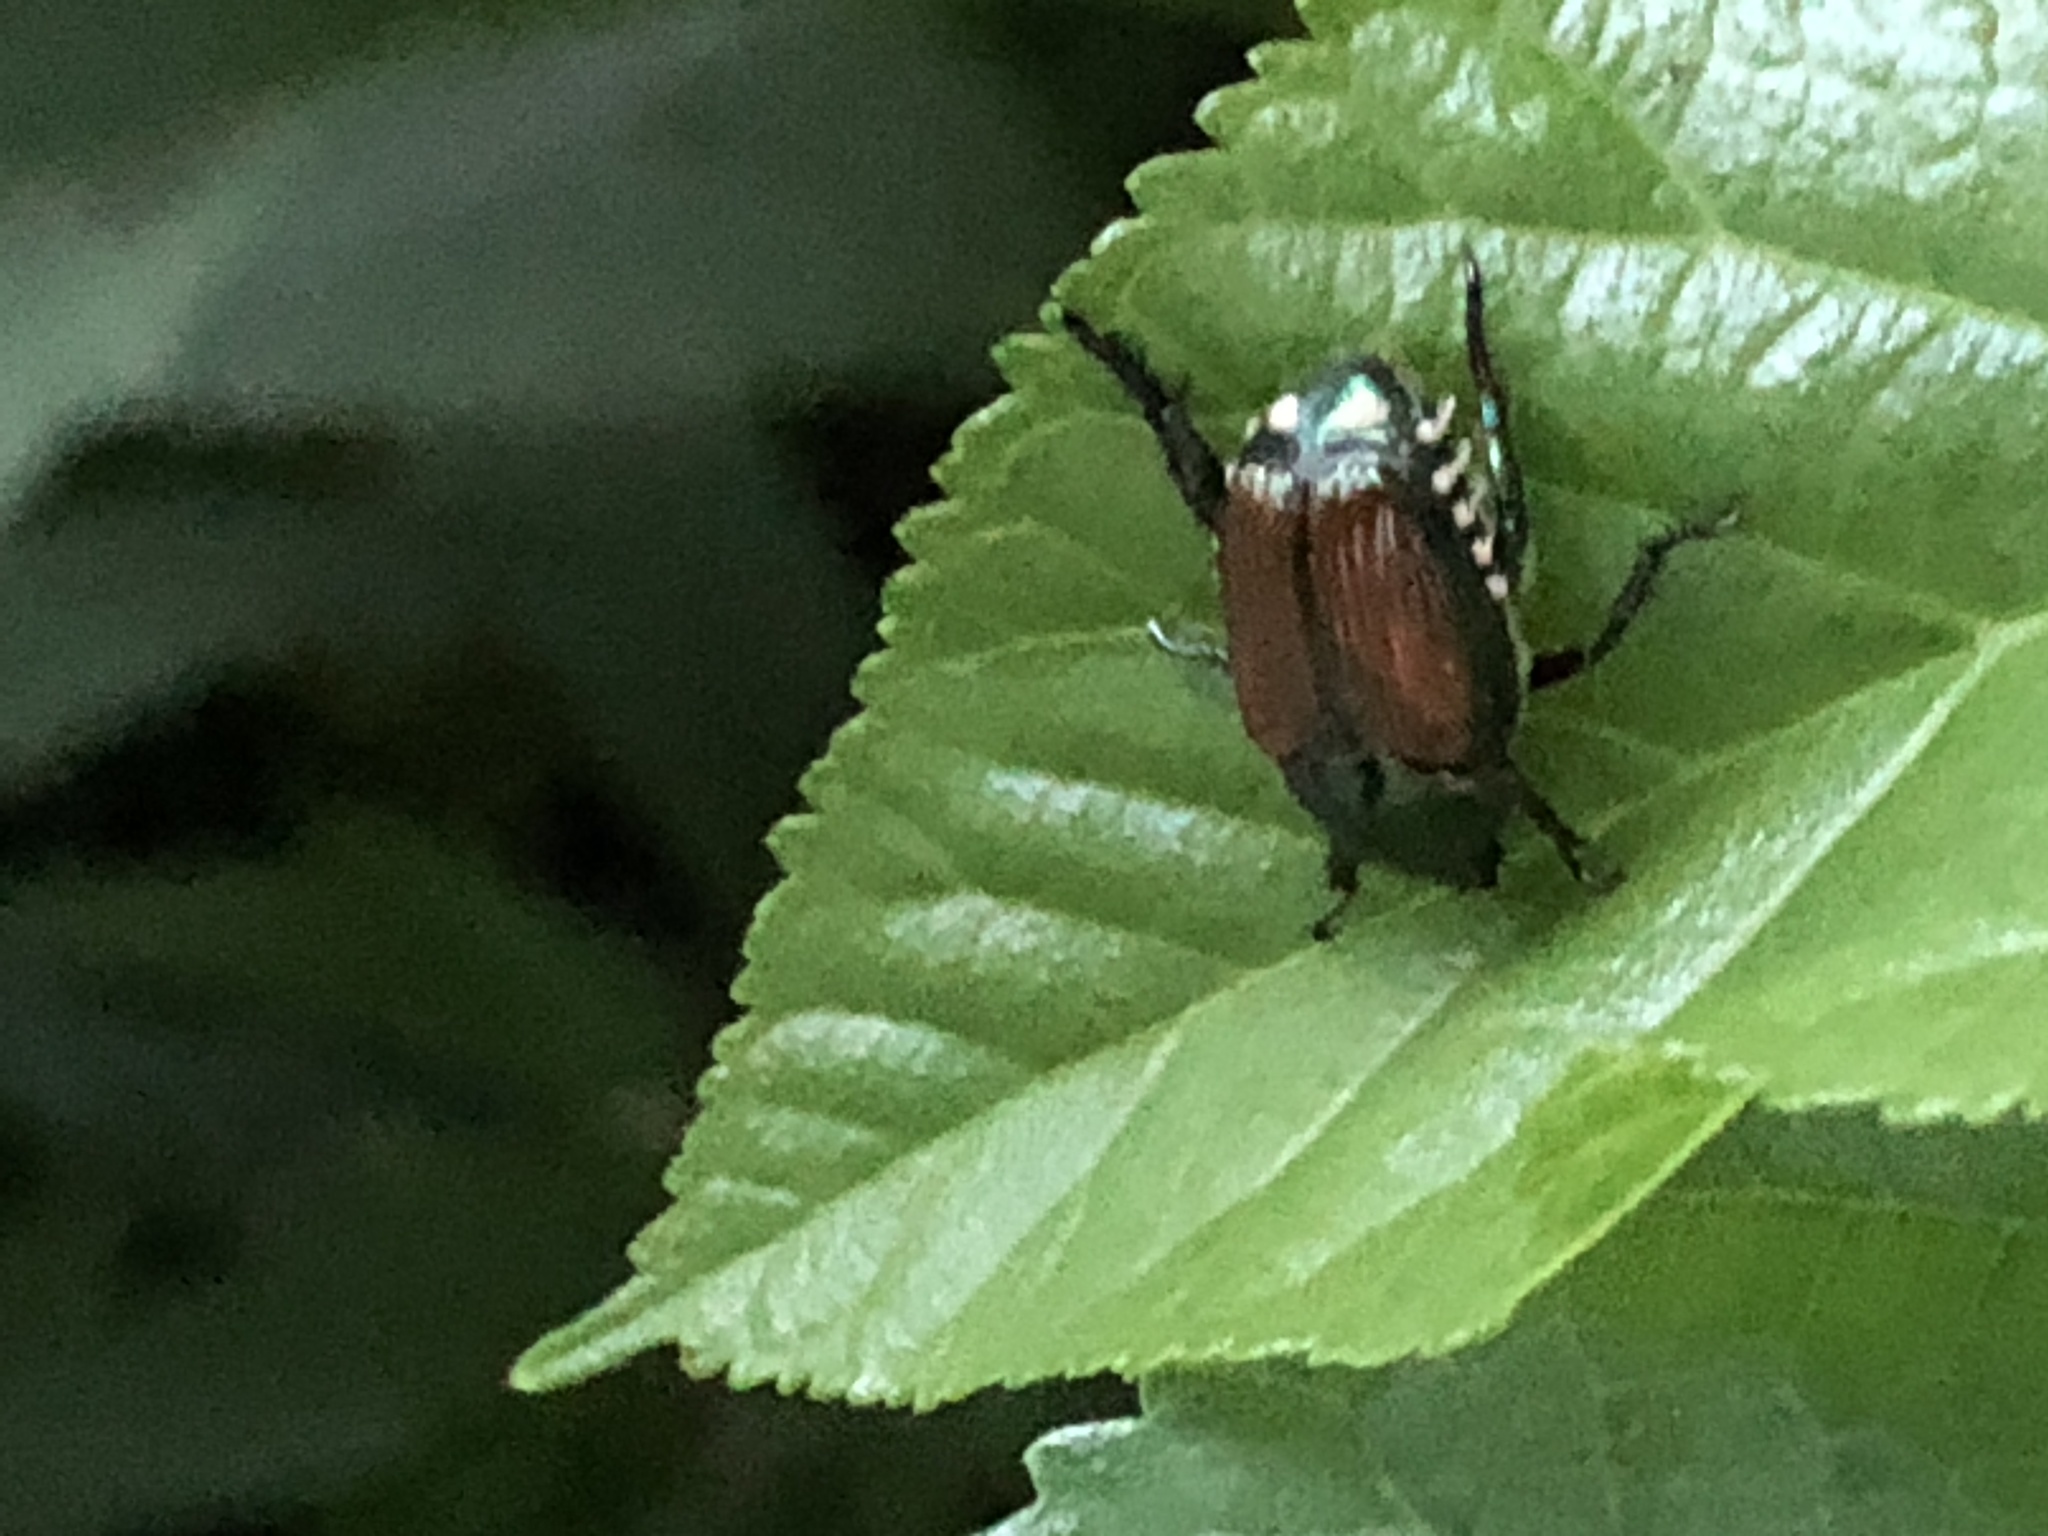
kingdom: Animalia
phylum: Arthropoda
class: Insecta
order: Coleoptera
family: Scarabaeidae
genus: Popillia
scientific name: Popillia japonica
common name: Japanese beetle
